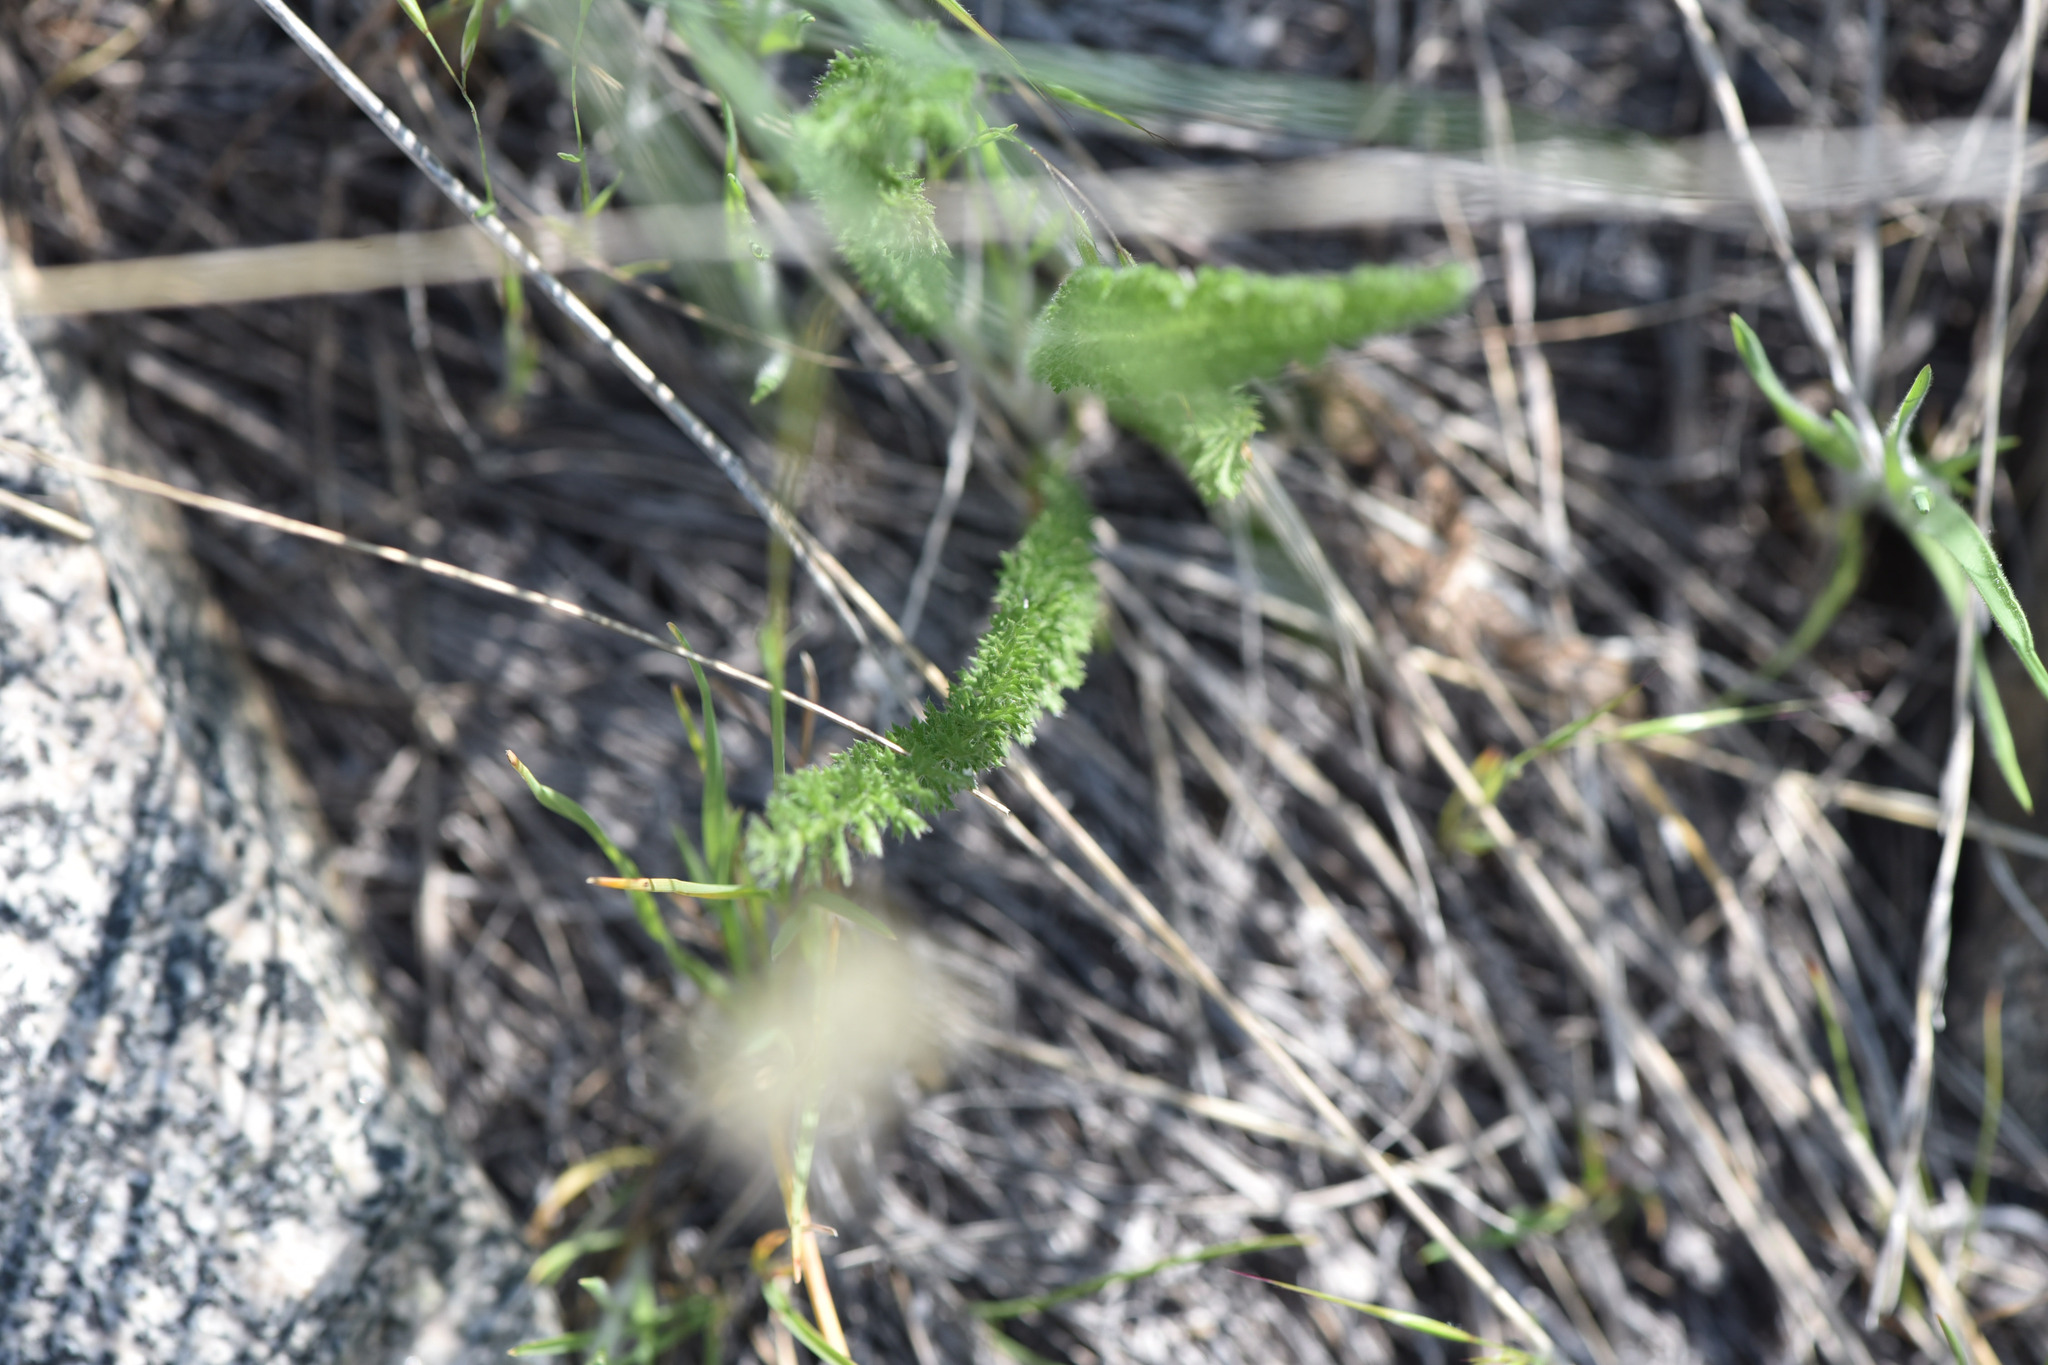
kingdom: Plantae
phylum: Tracheophyta
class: Magnoliopsida
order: Asterales
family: Asteraceae
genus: Achillea
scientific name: Achillea millefolium
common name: Yarrow
